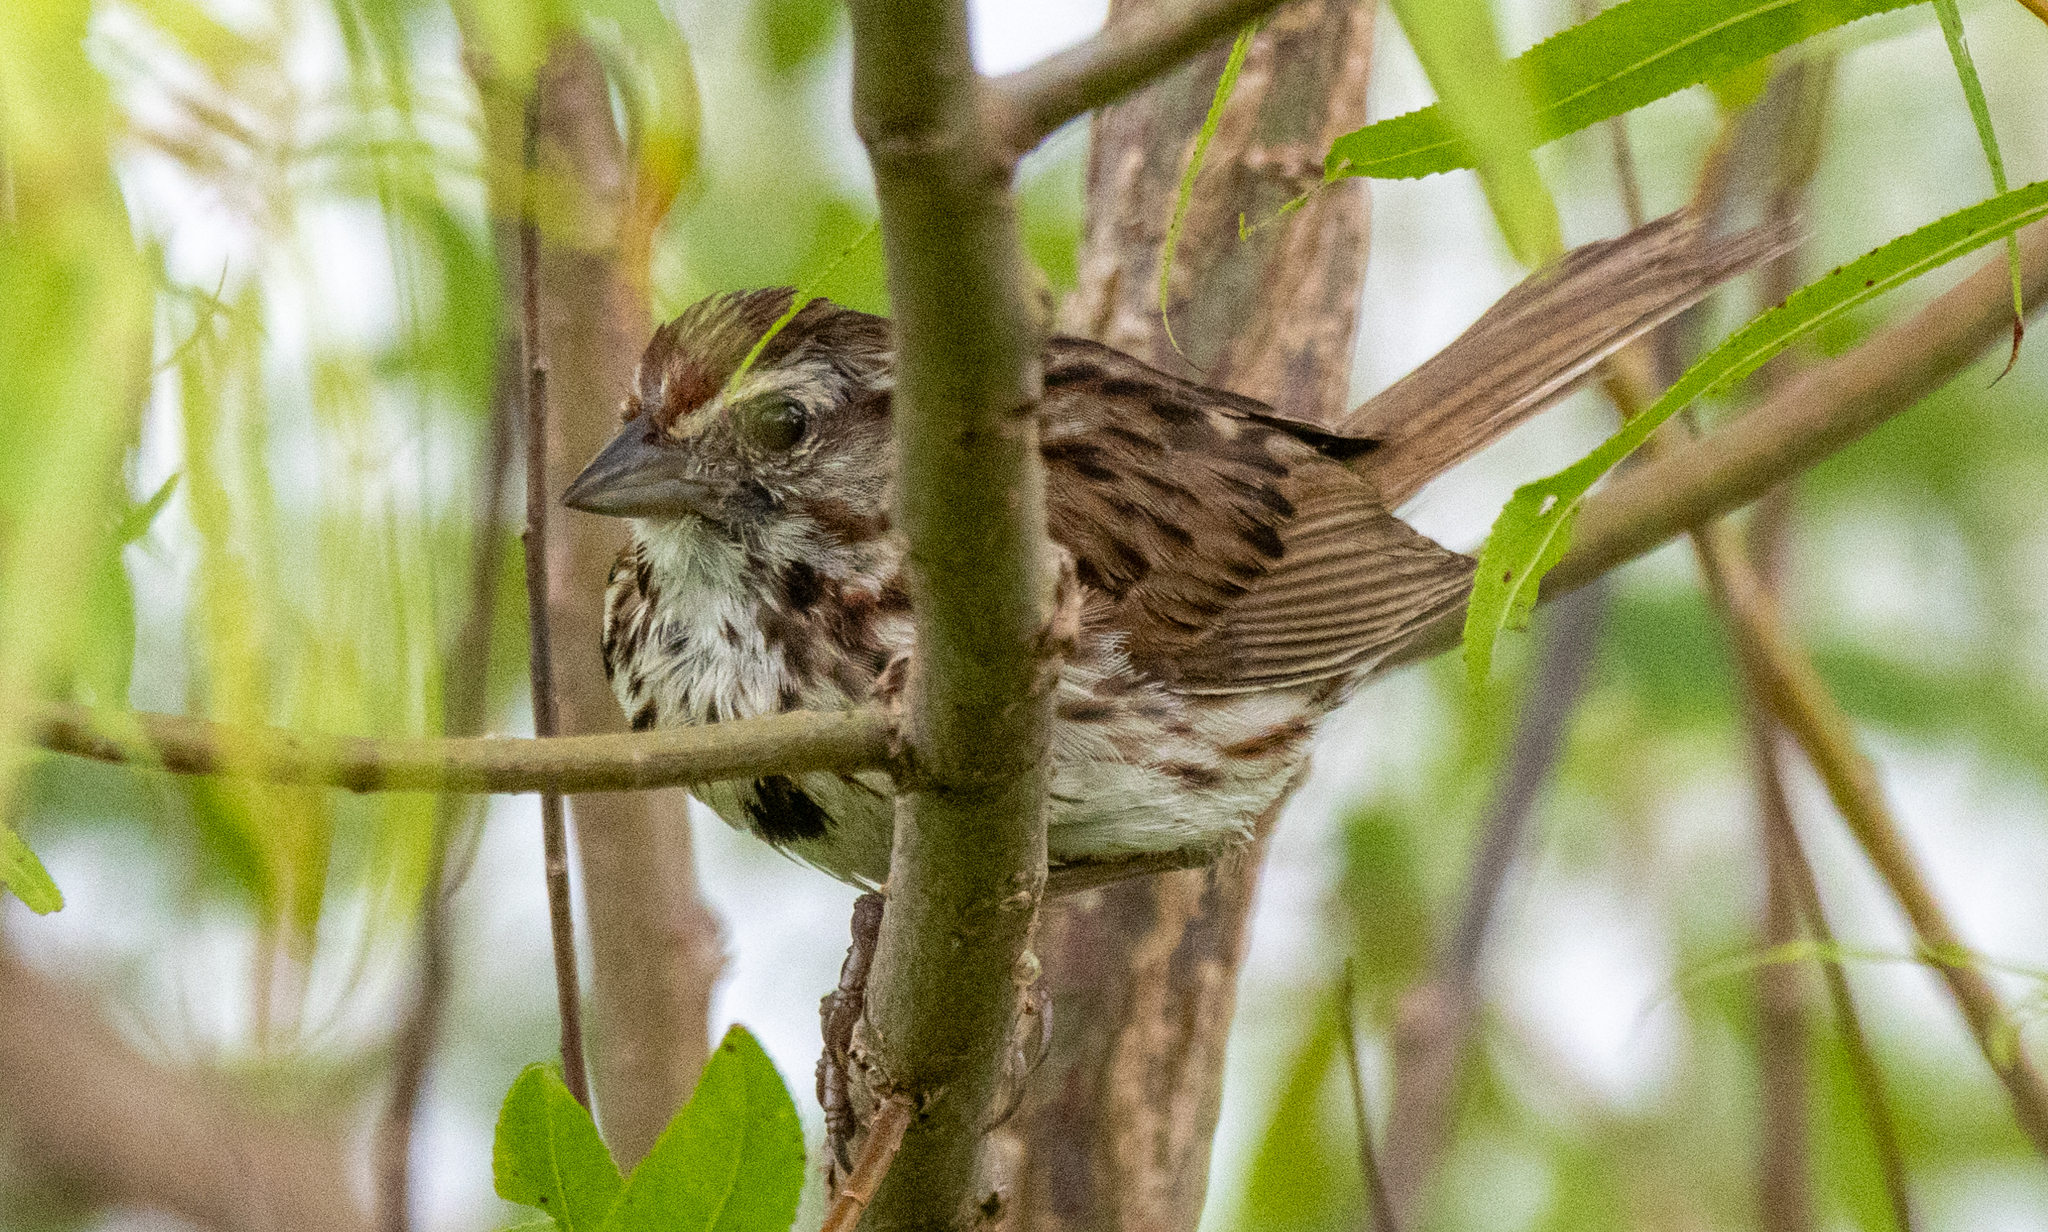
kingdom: Animalia
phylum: Chordata
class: Aves
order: Passeriformes
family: Passerellidae
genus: Melospiza
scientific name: Melospiza melodia
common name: Song sparrow
